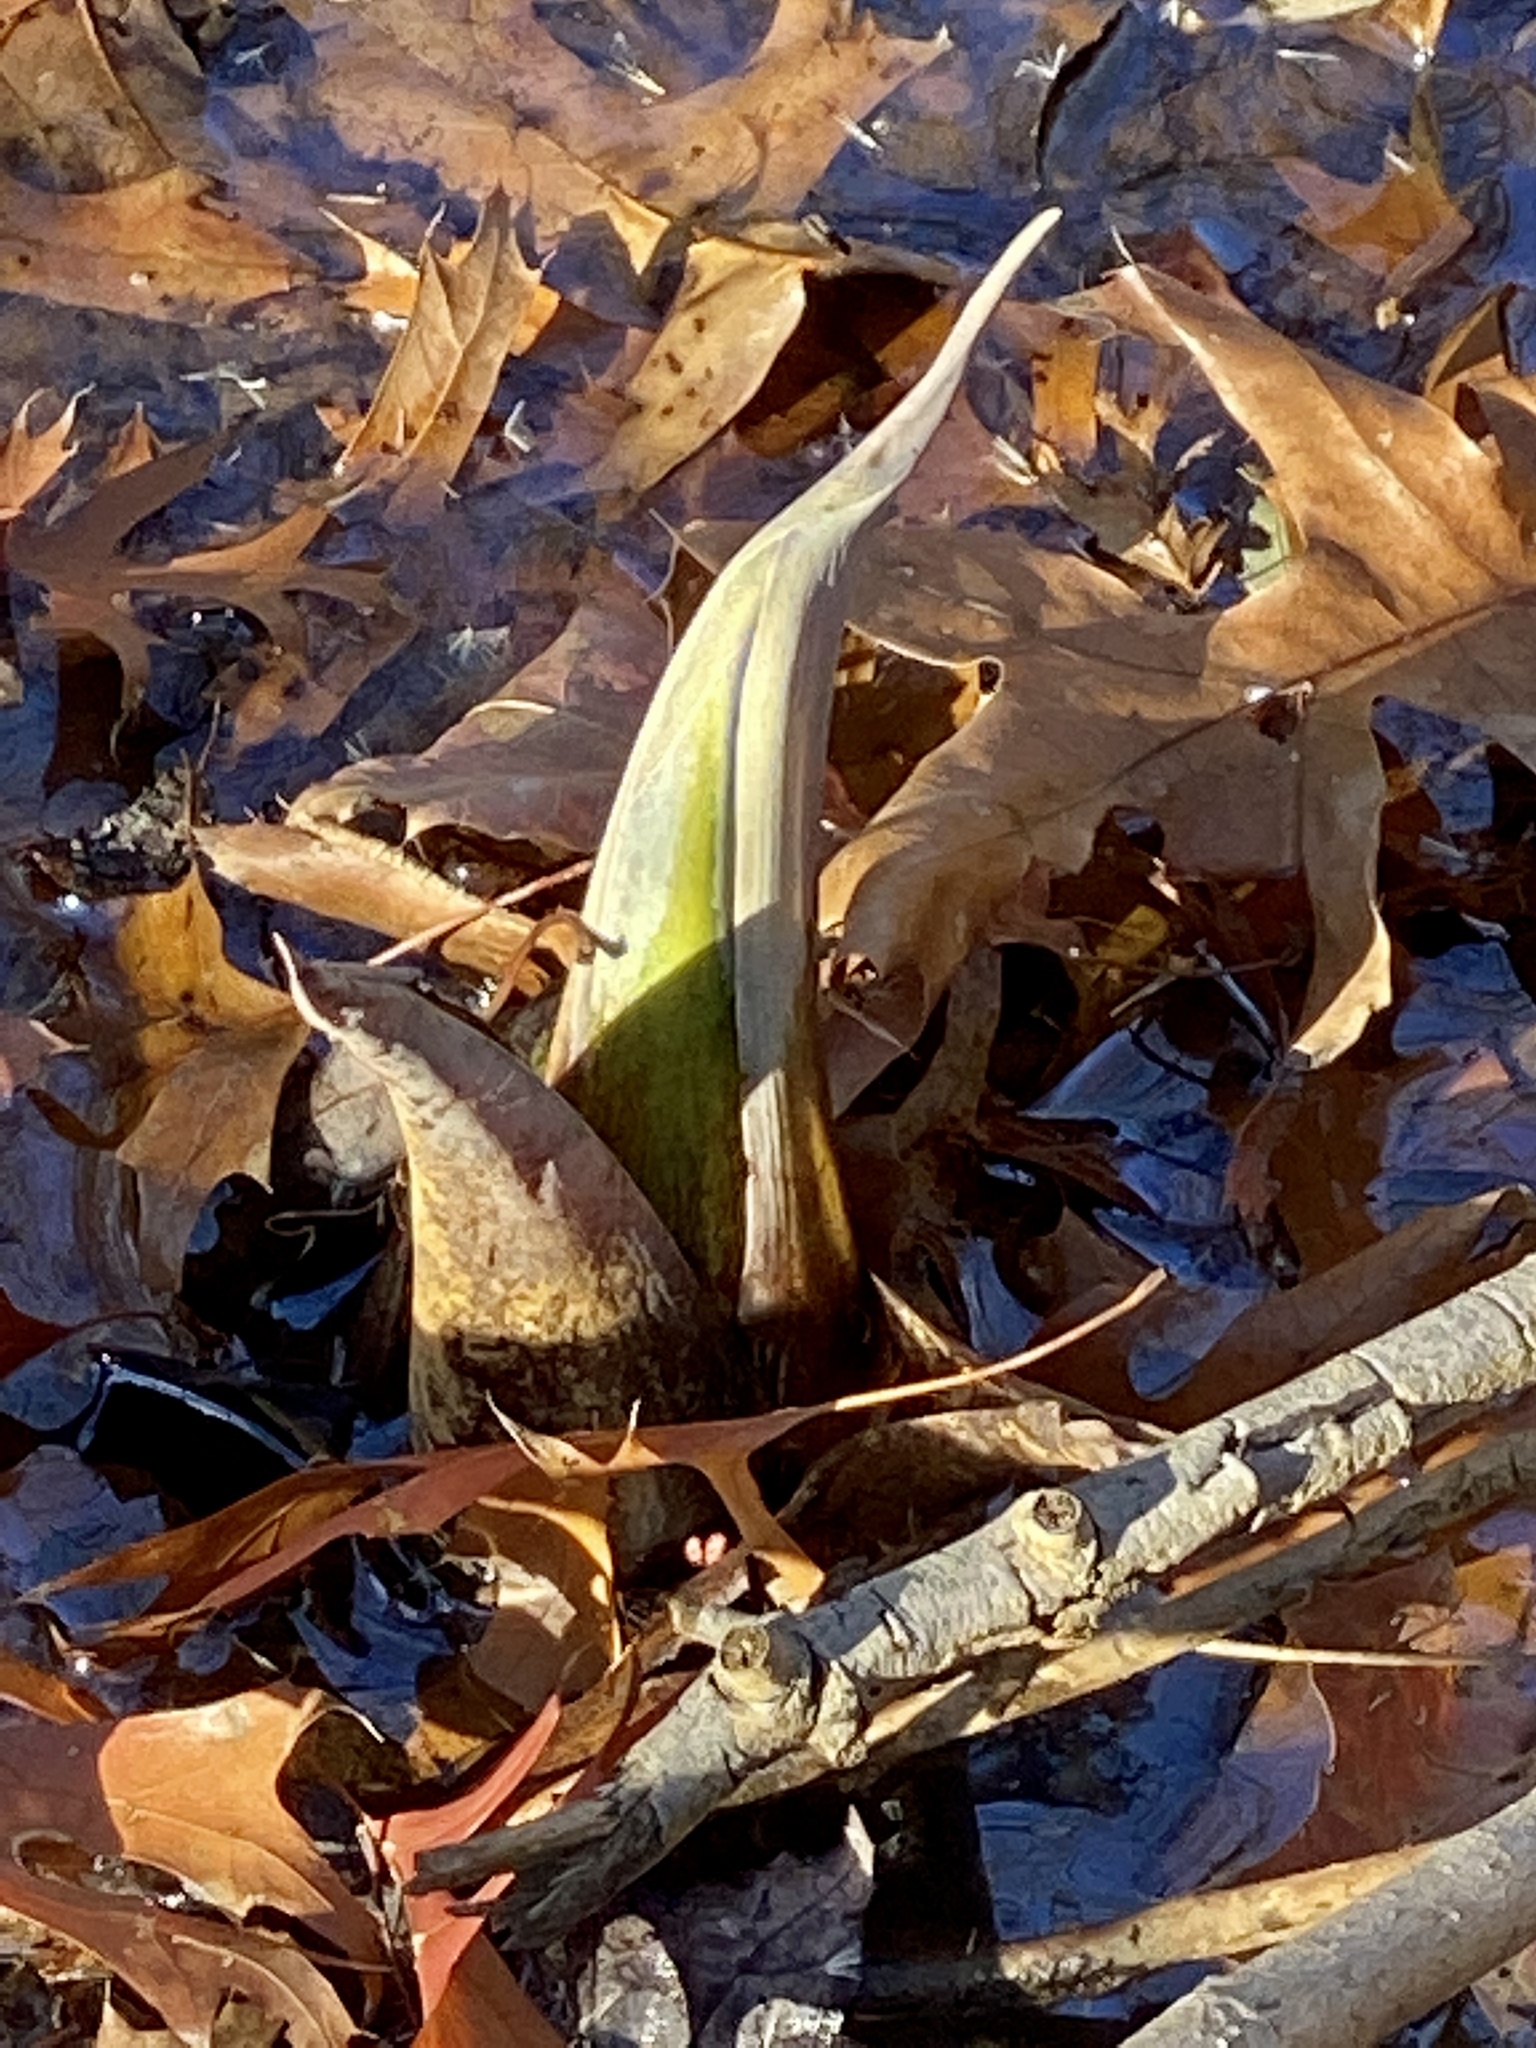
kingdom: Plantae
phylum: Tracheophyta
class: Liliopsida
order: Alismatales
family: Araceae
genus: Symplocarpus
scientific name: Symplocarpus foetidus
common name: Eastern skunk cabbage
